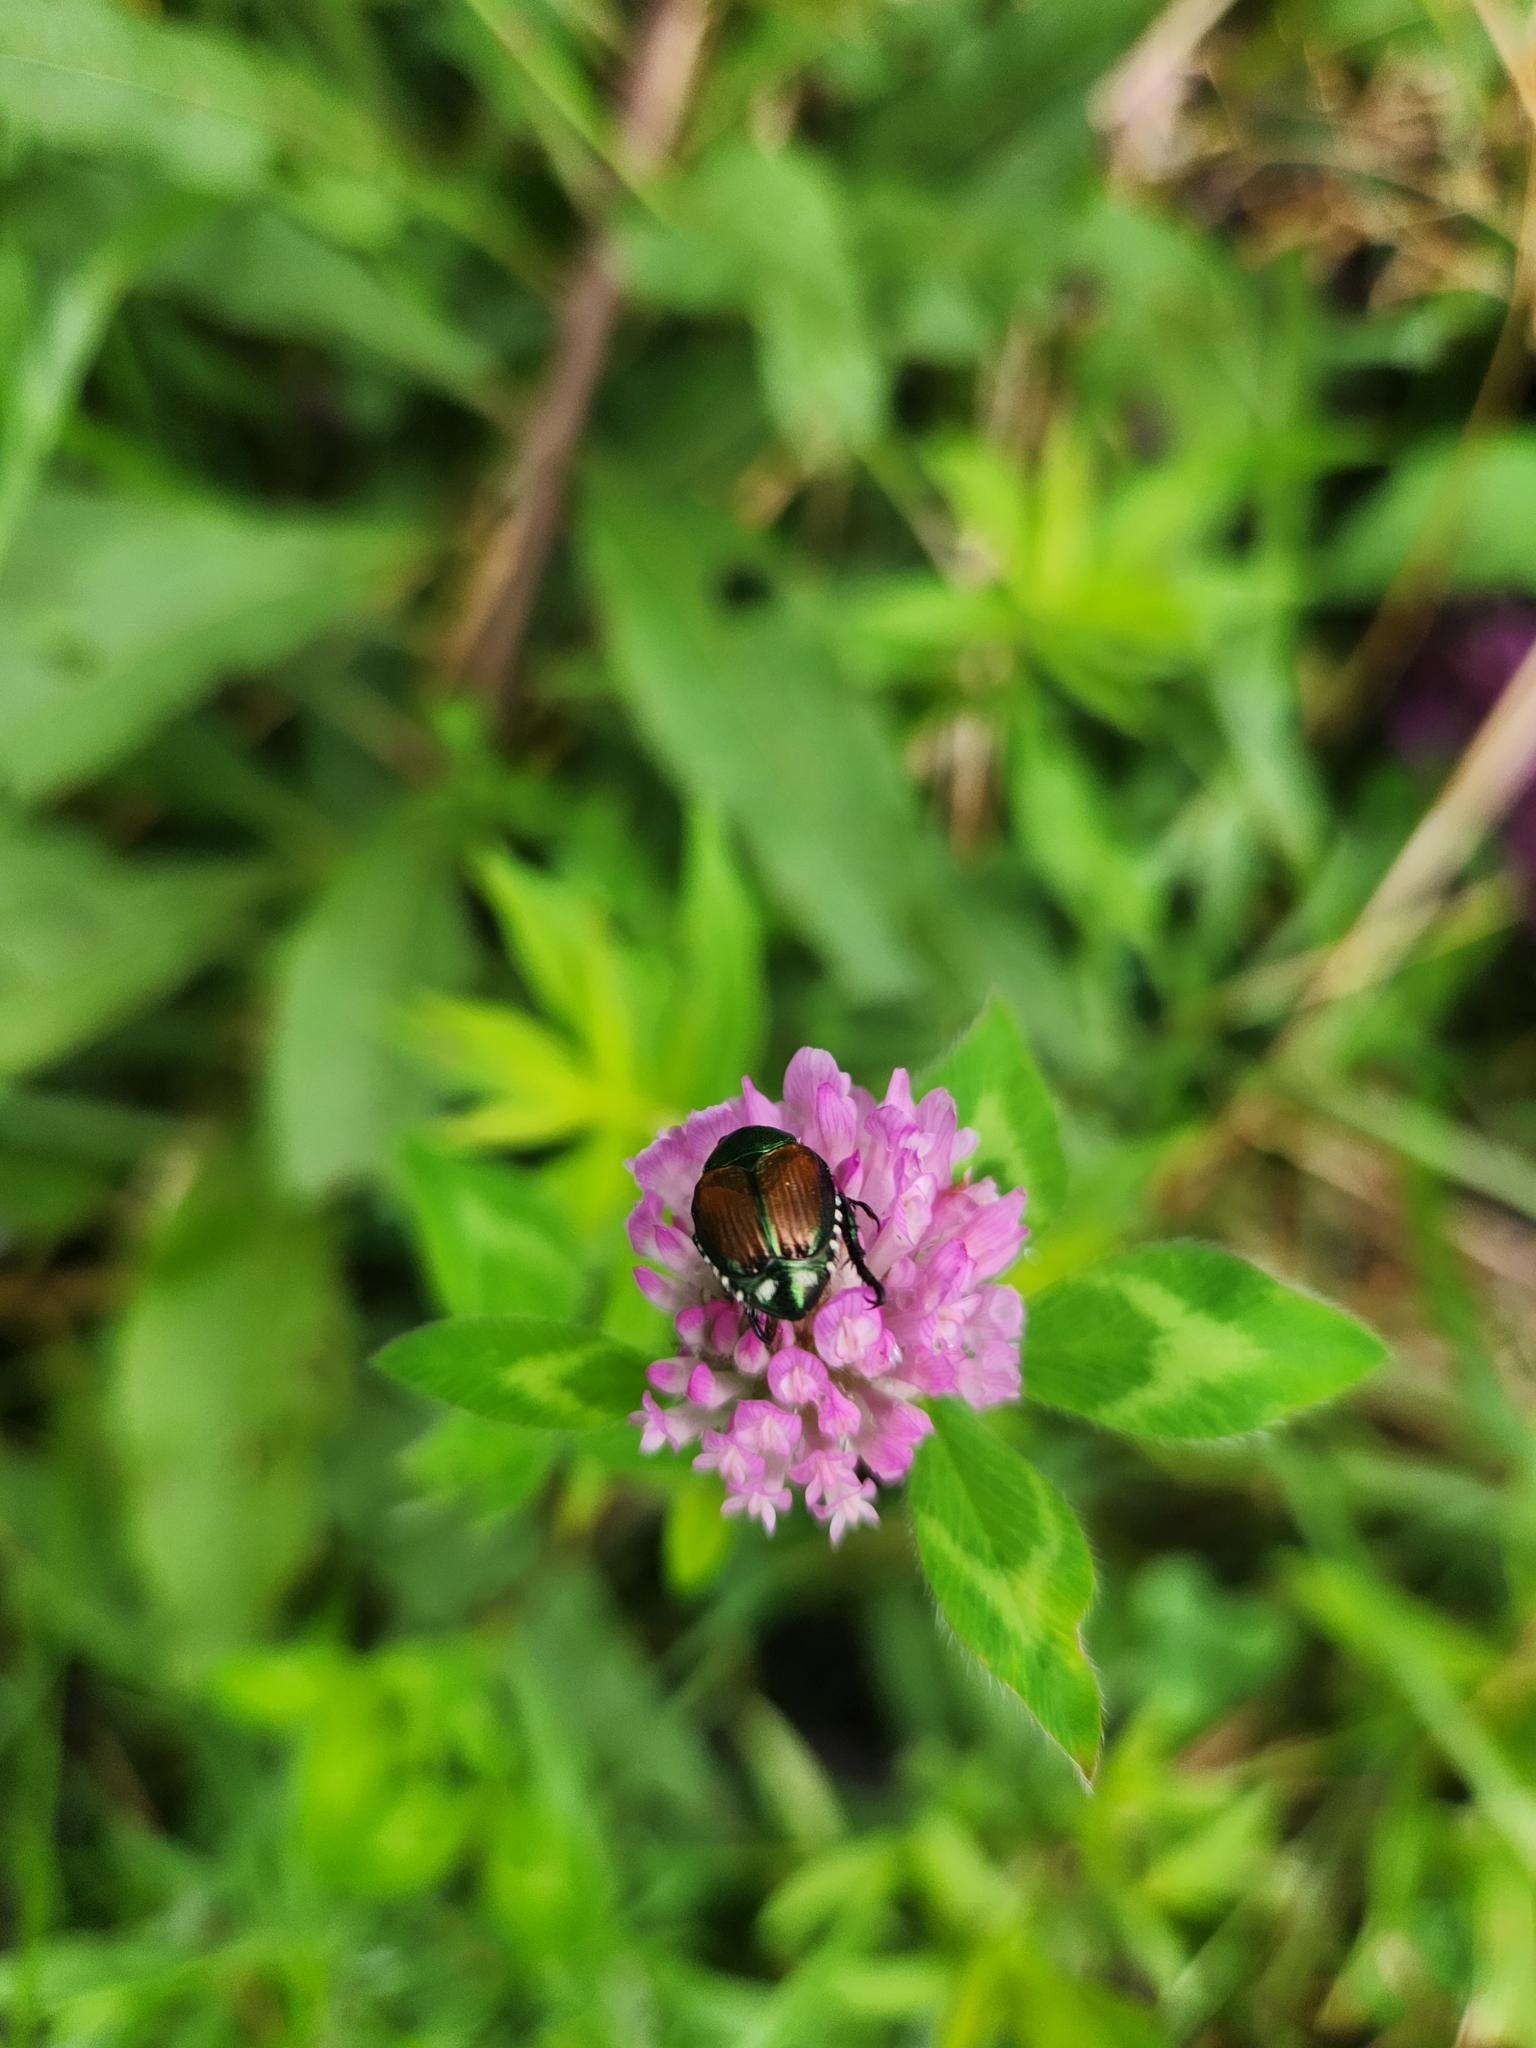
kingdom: Animalia
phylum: Arthropoda
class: Insecta
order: Coleoptera
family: Scarabaeidae
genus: Popillia
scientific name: Popillia japonica
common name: Japanese beetle
